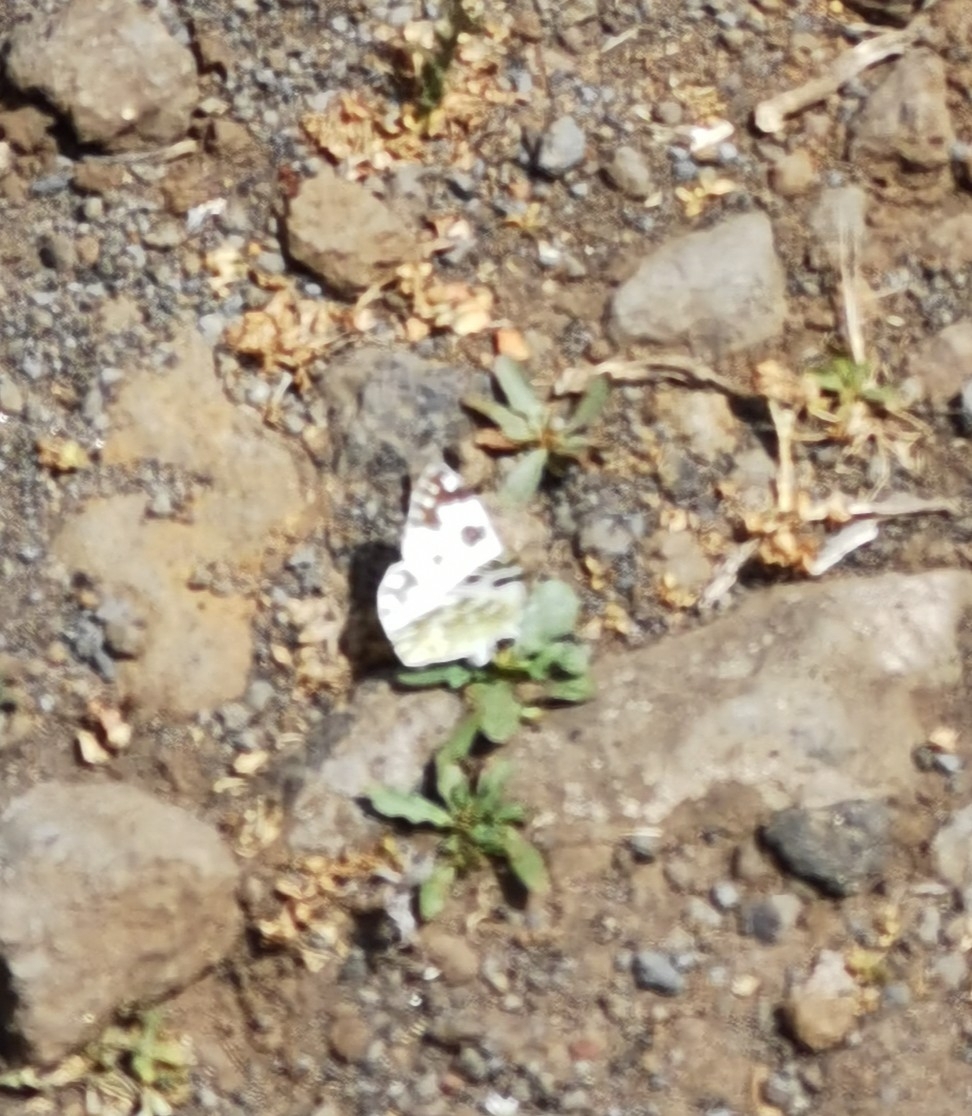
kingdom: Animalia
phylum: Arthropoda
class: Insecta
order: Lepidoptera
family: Pieridae
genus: Pontia
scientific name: Pontia daplidice
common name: Bath white
